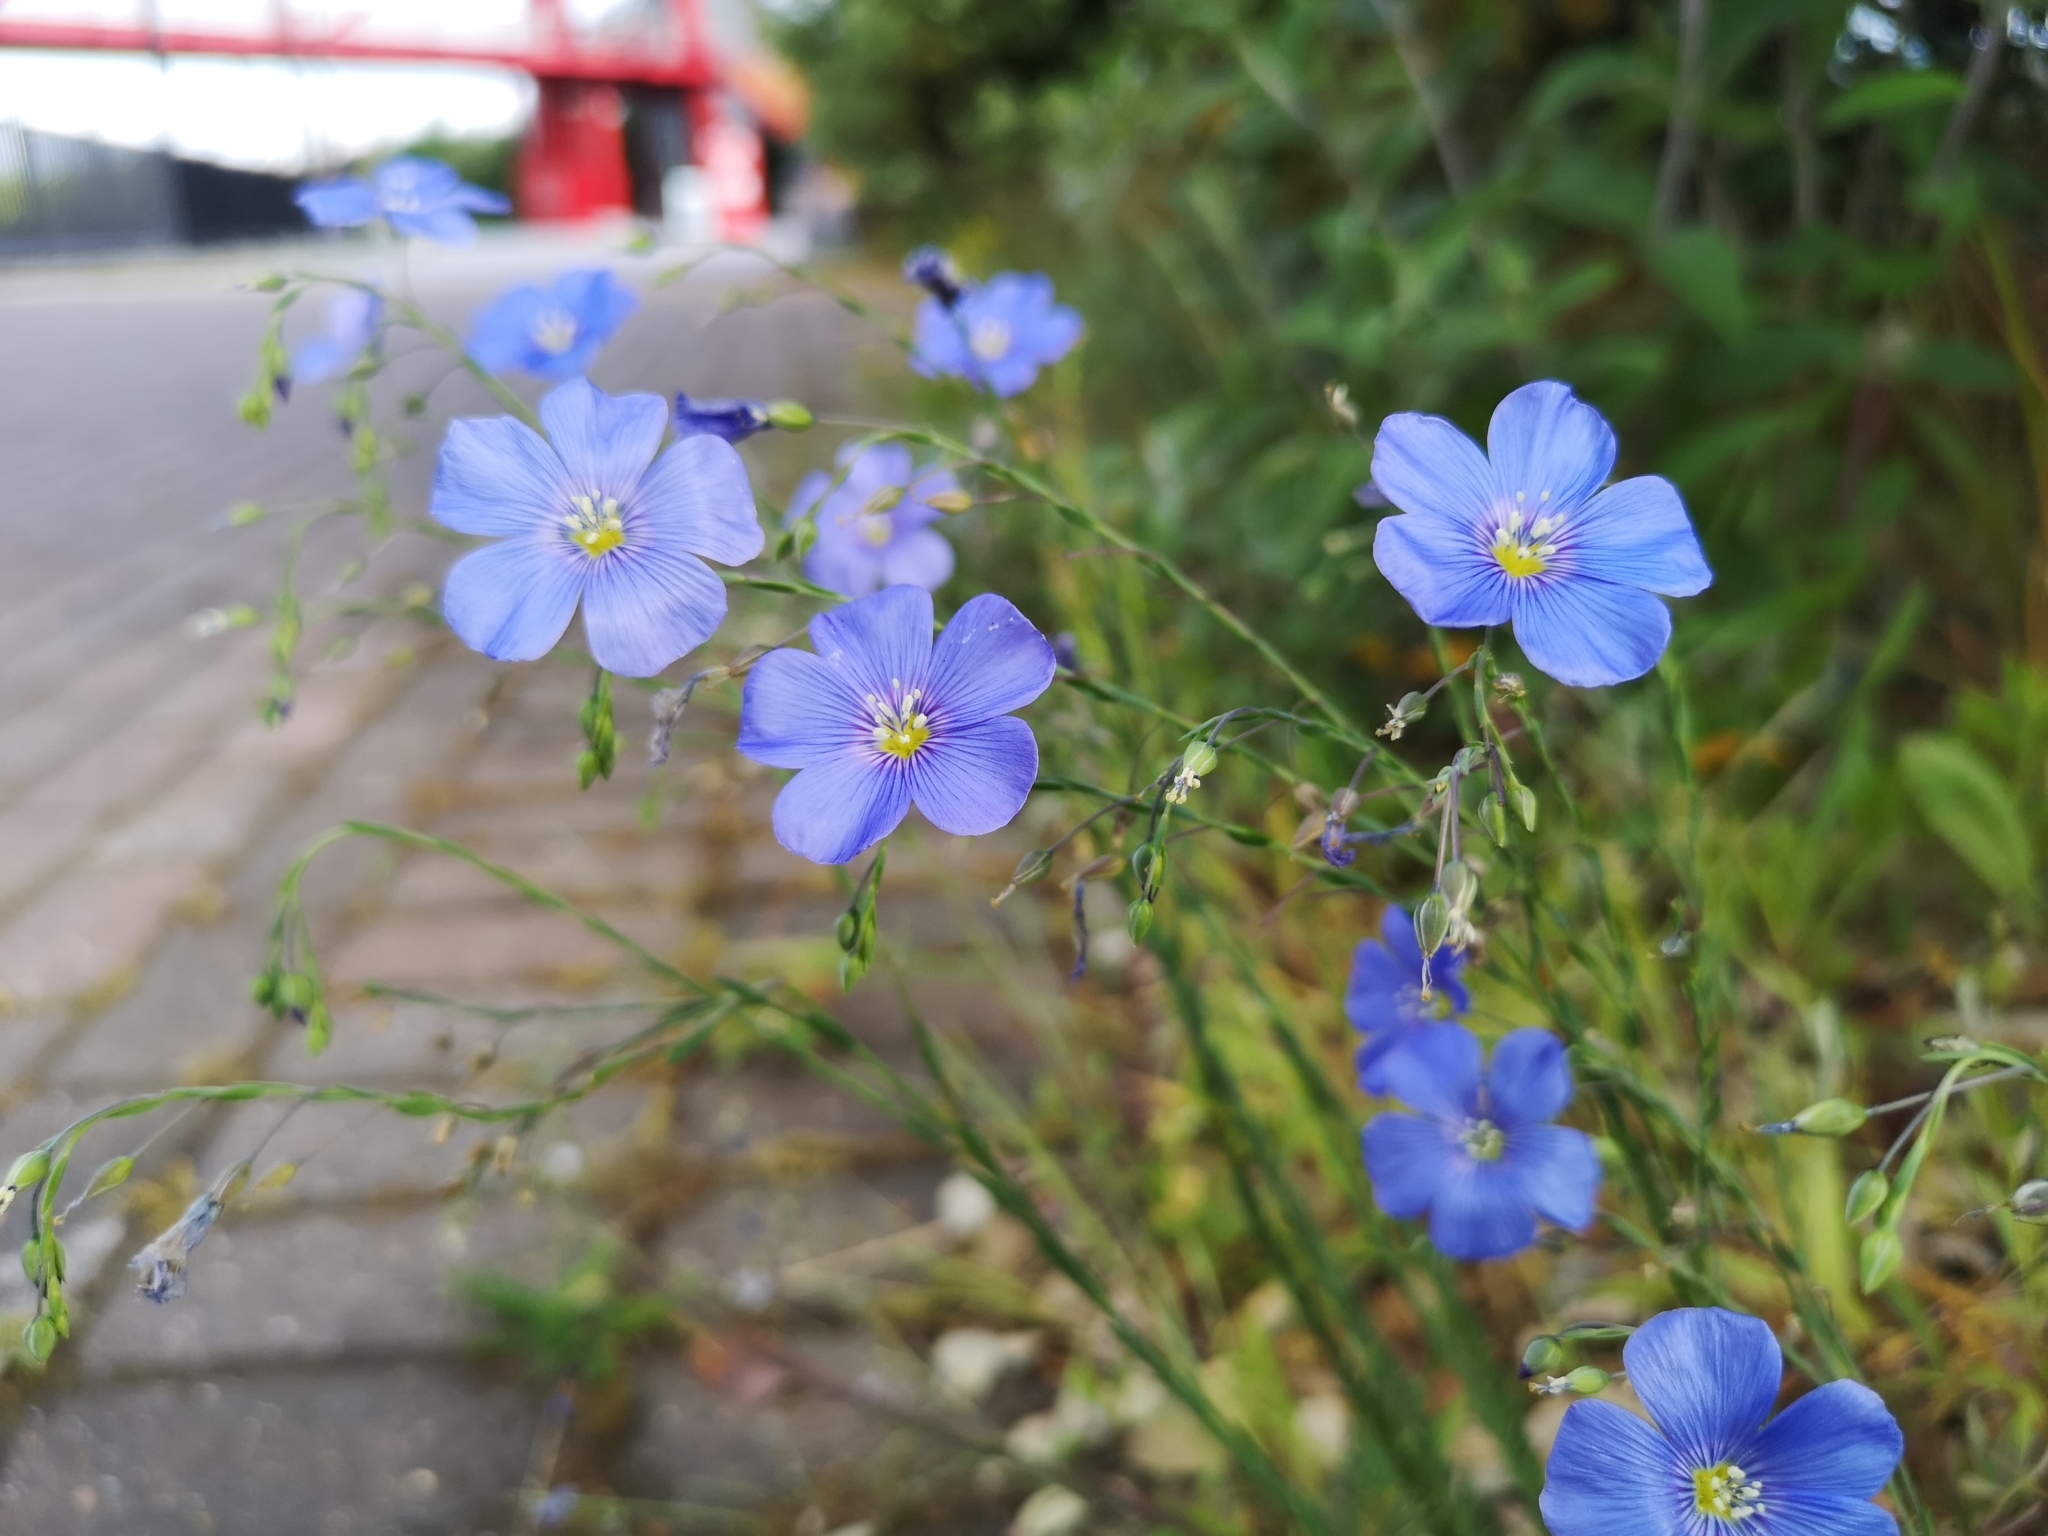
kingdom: Plantae
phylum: Tracheophyta
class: Magnoliopsida
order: Malpighiales
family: Linaceae
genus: Linum
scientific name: Linum usitatissimum
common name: Flax
